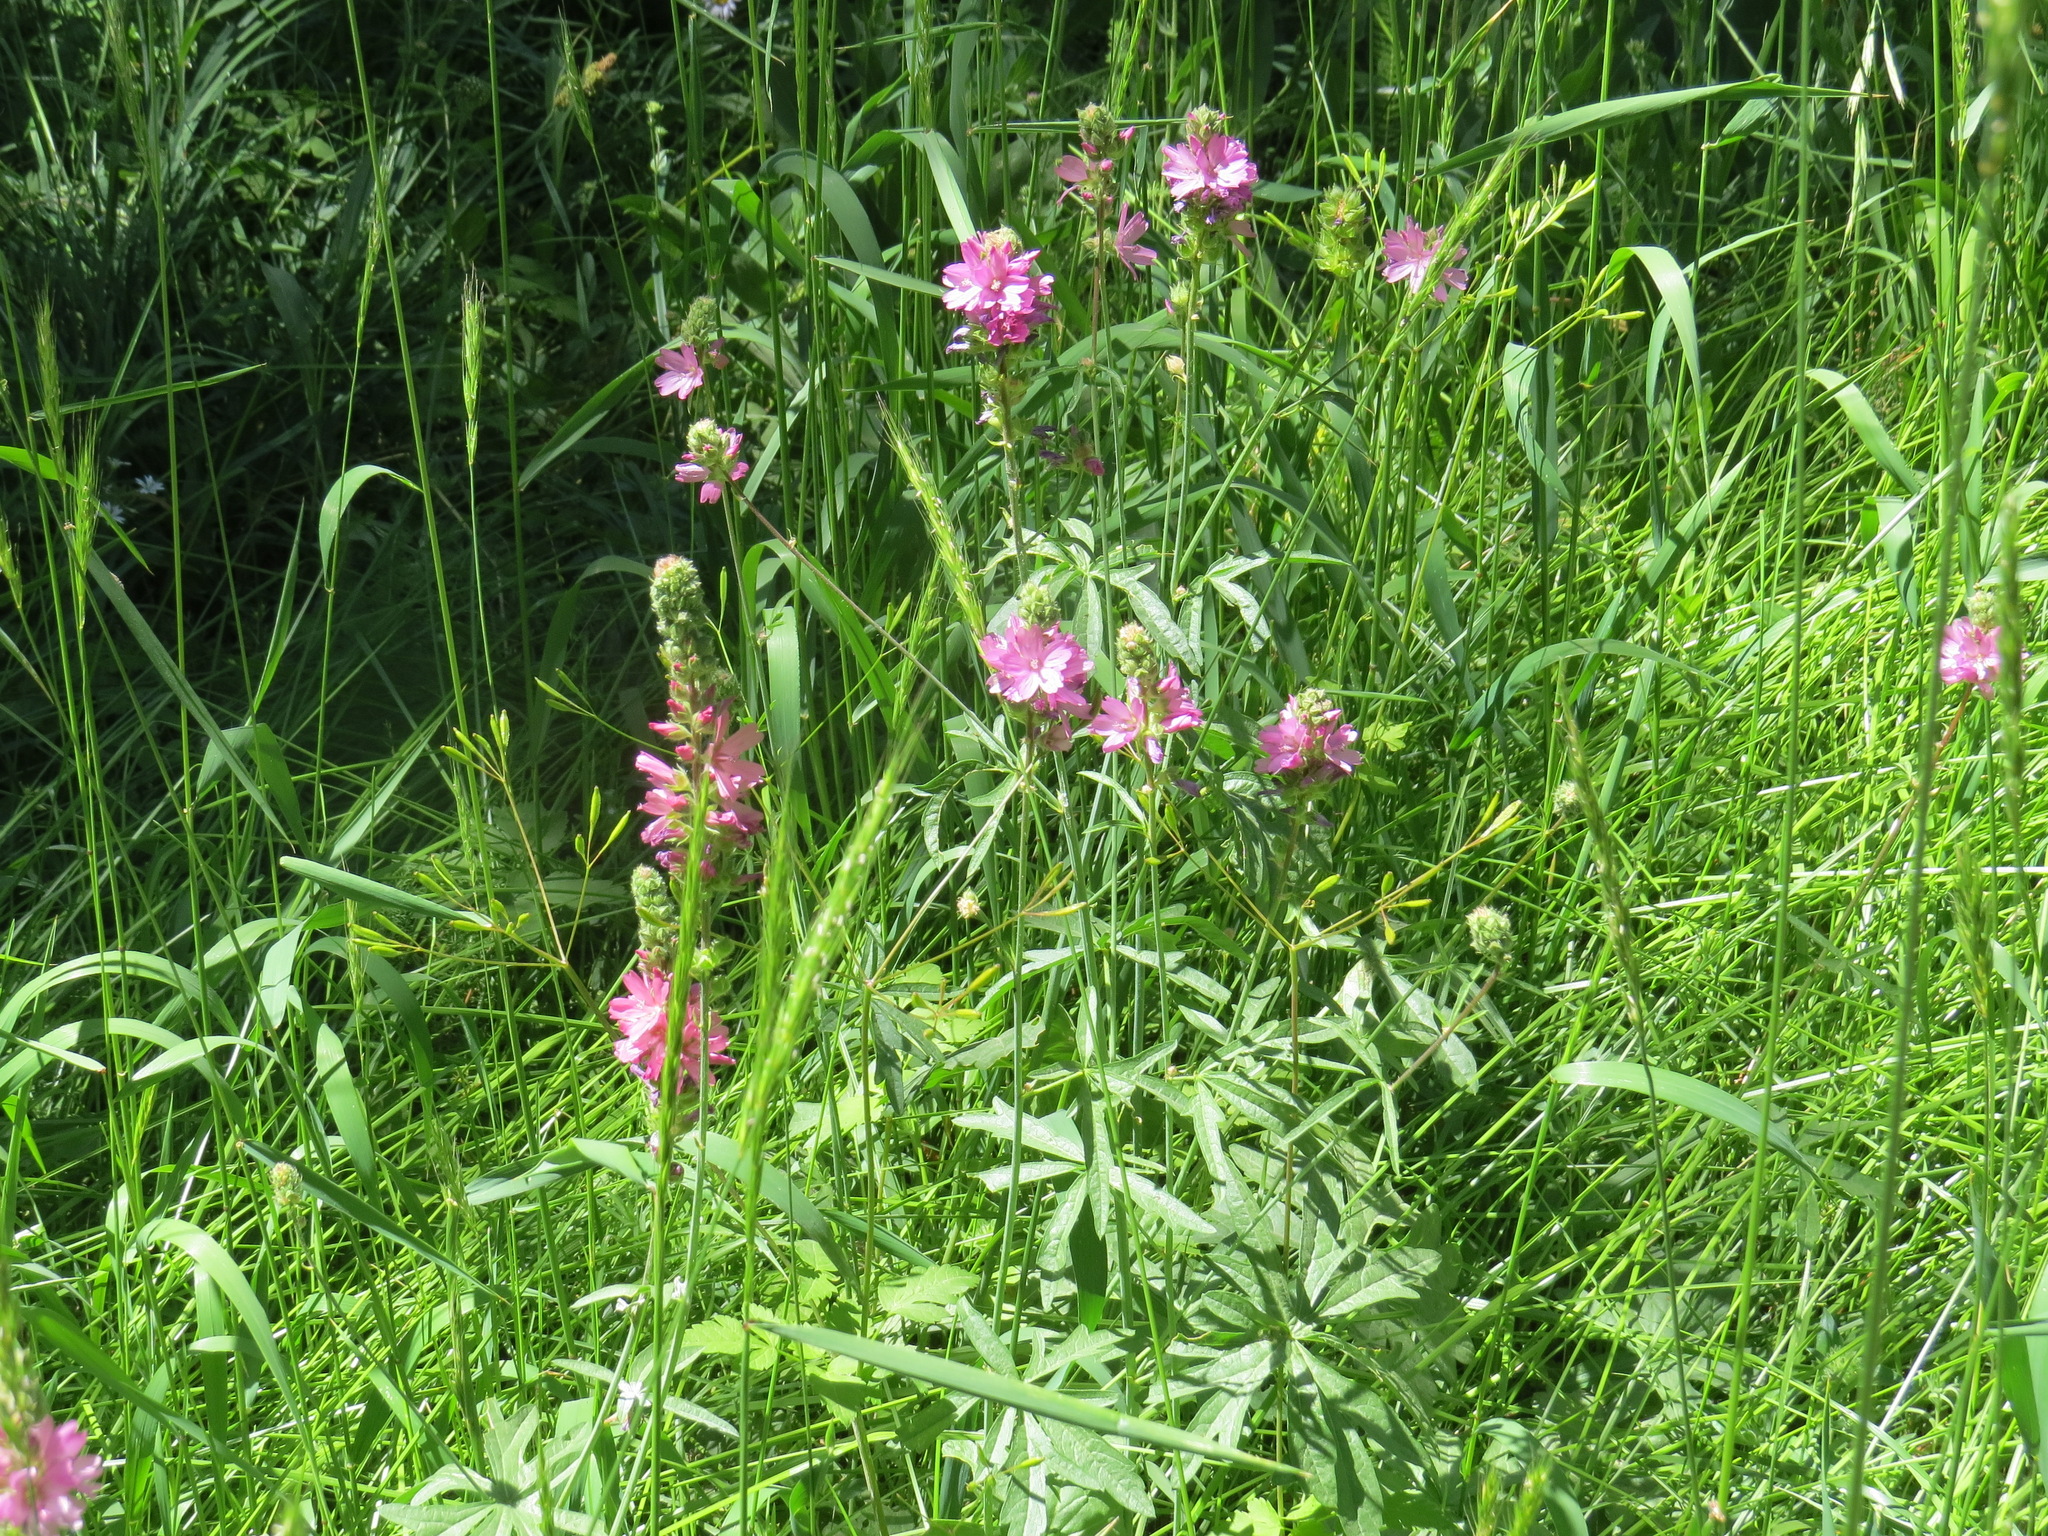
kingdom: Plantae
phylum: Tracheophyta
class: Magnoliopsida
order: Malvales
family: Malvaceae
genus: Sidalcea
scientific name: Sidalcea oregana
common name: Oregon checker-mallow
